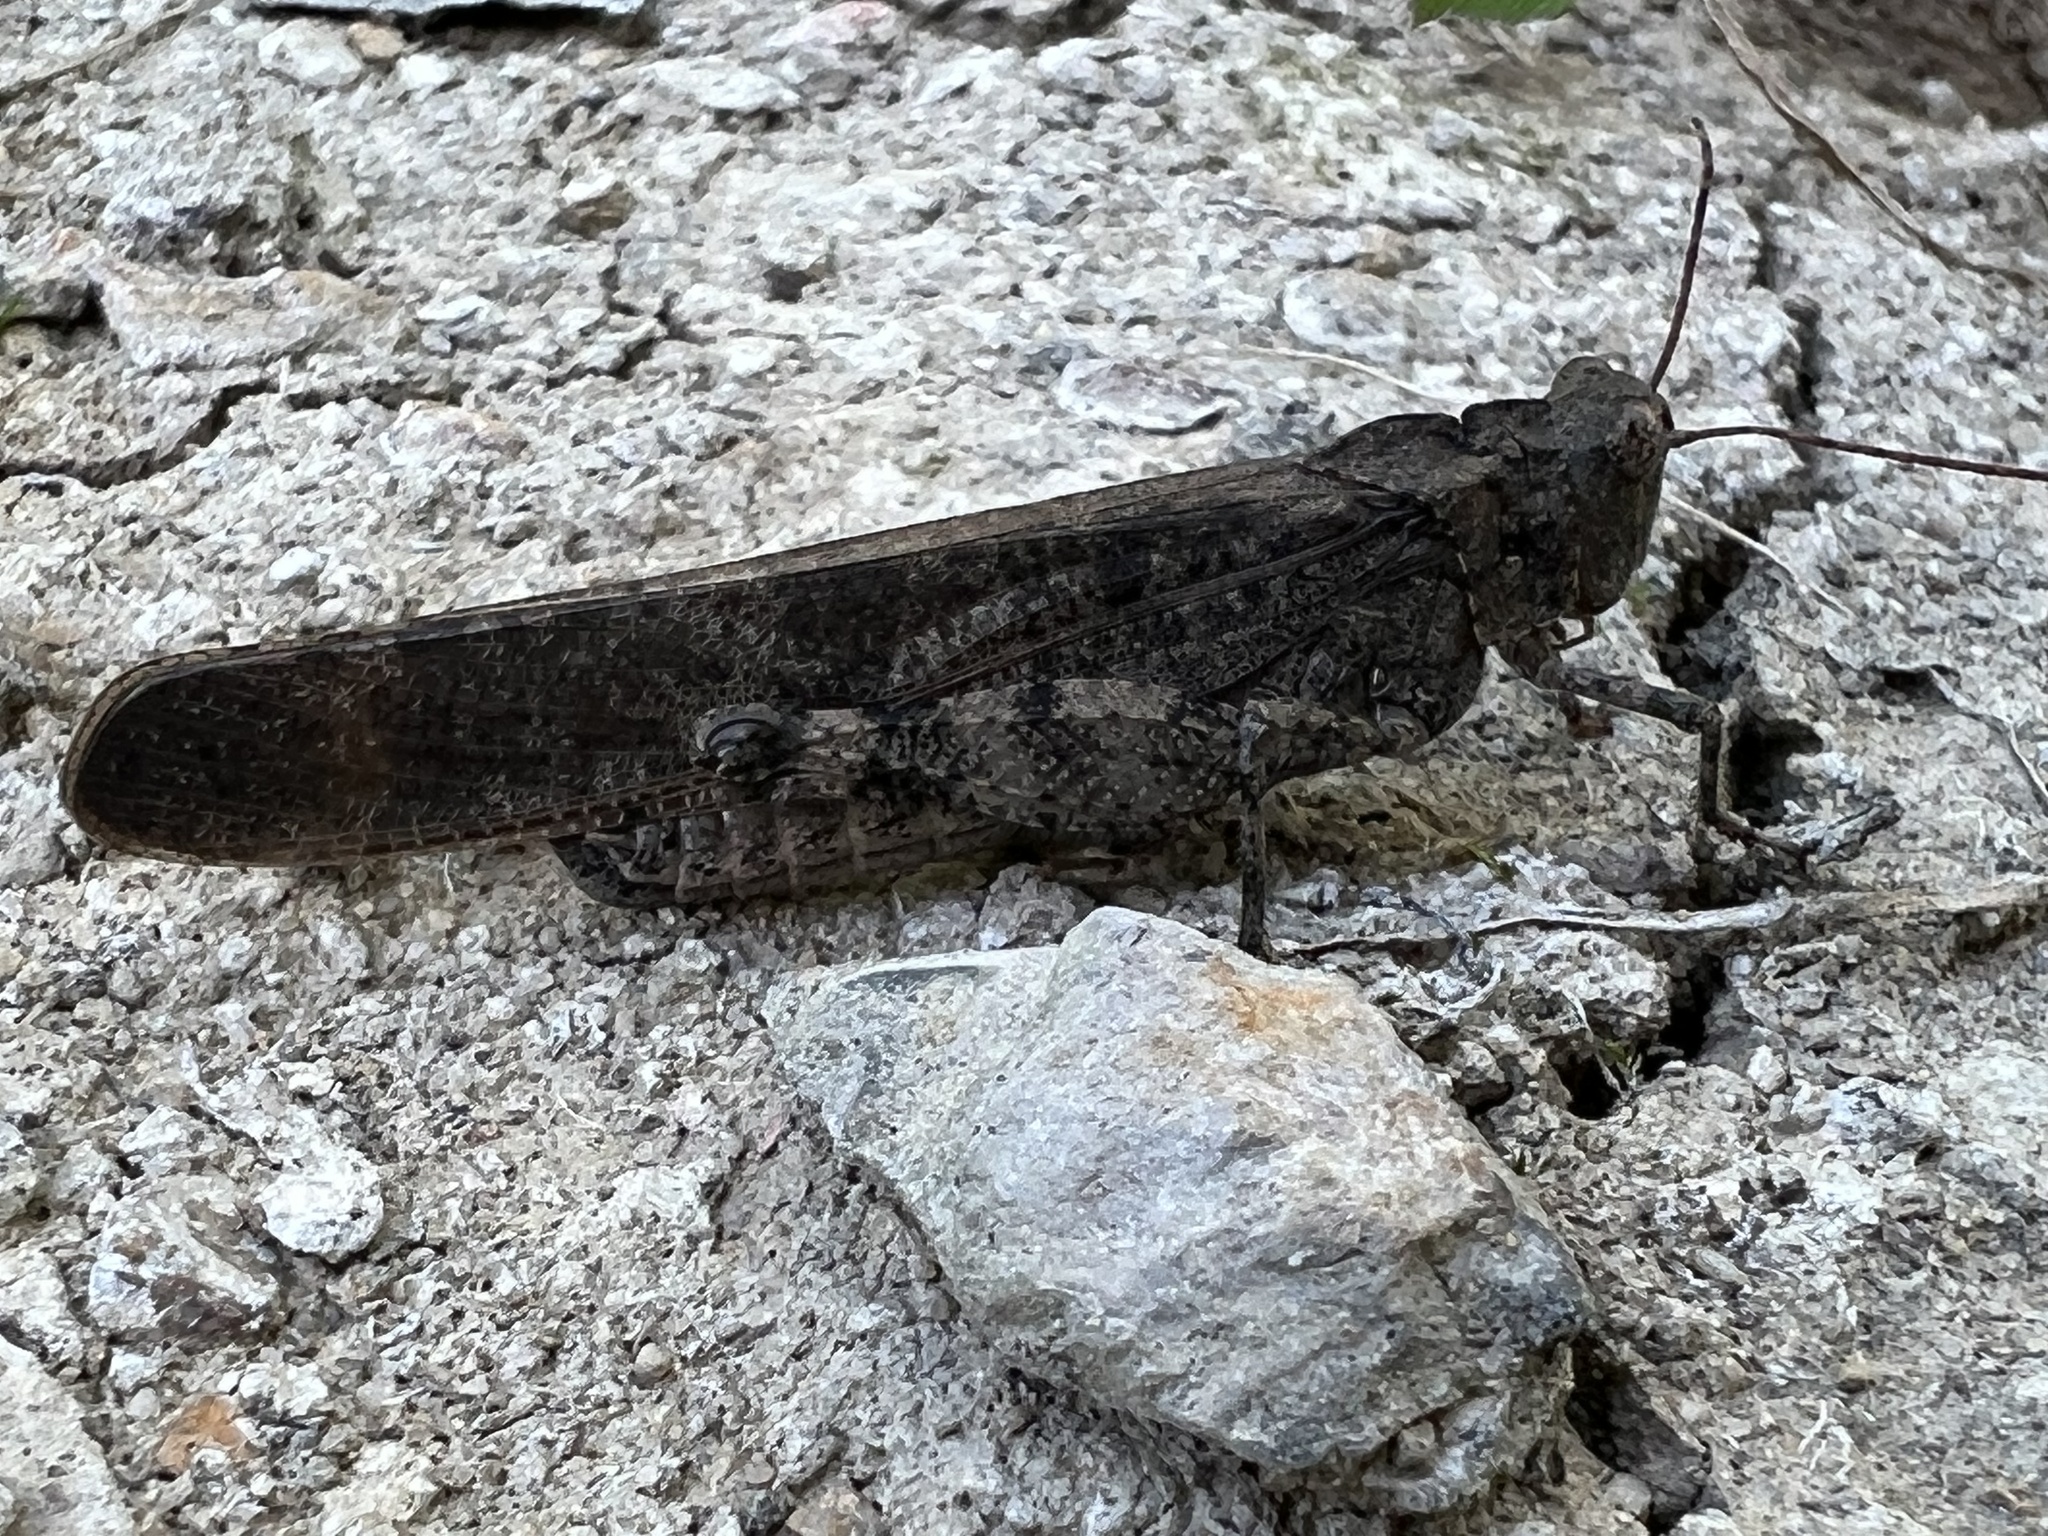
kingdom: Animalia
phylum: Arthropoda
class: Insecta
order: Orthoptera
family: Acrididae
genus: Dissosteira
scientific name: Dissosteira carolina
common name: Carolina grasshopper
